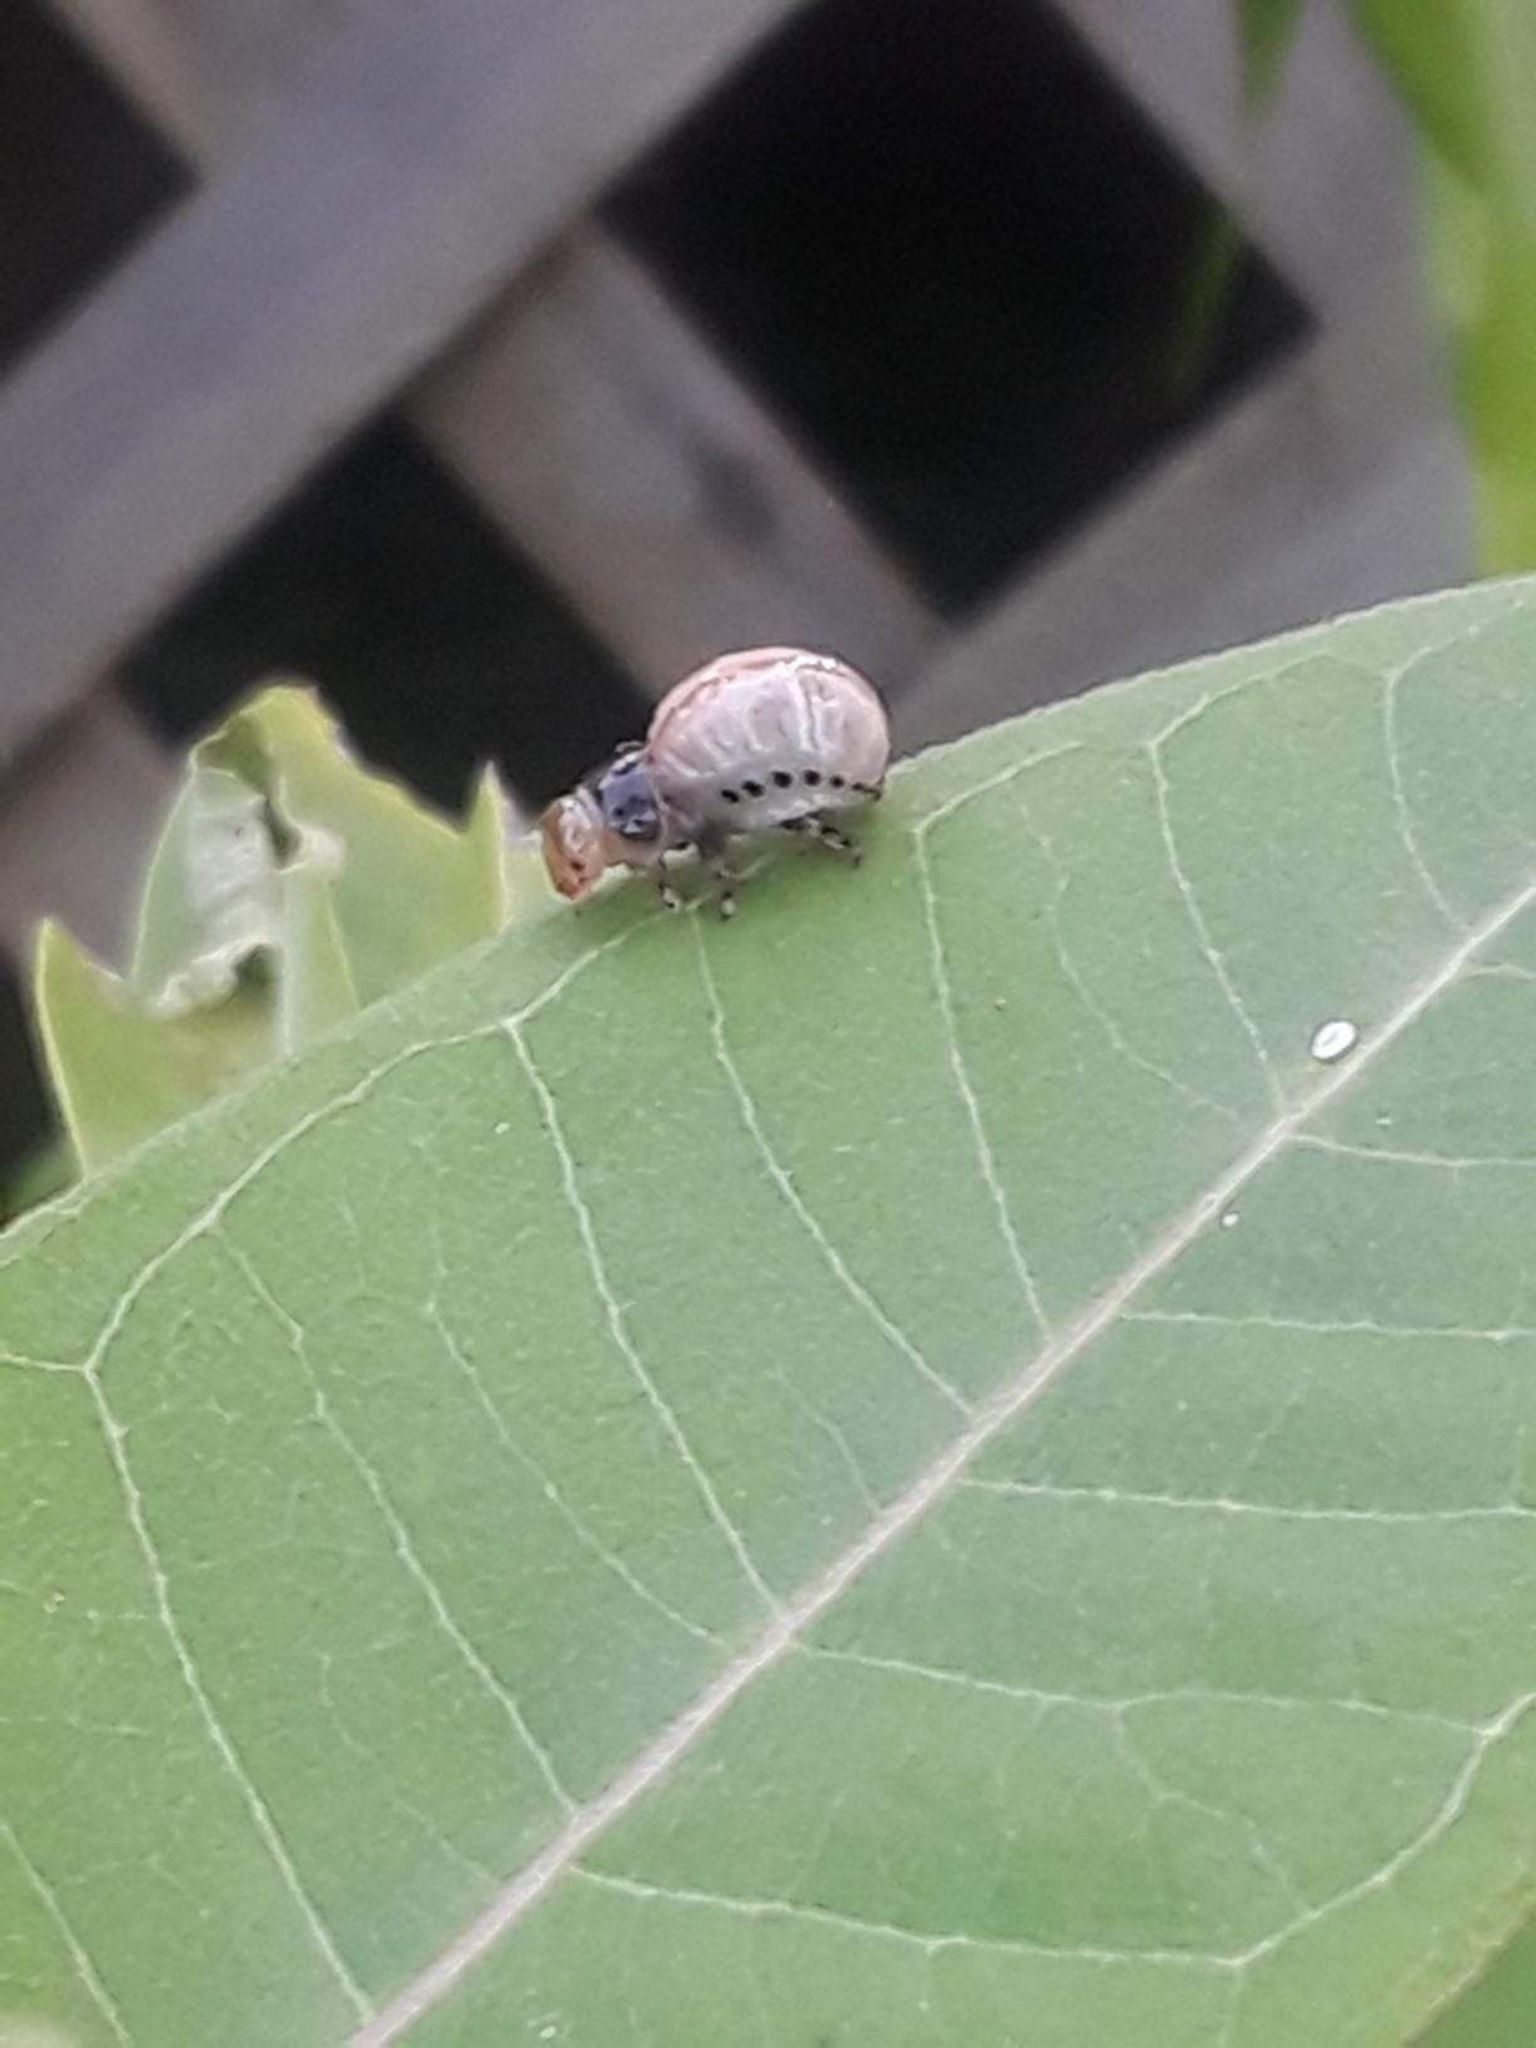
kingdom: Animalia
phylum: Arthropoda
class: Insecta
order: Coleoptera
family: Chrysomelidae
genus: Labidomera
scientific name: Labidomera clivicollis
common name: Swamp milkweed leaf beetle
